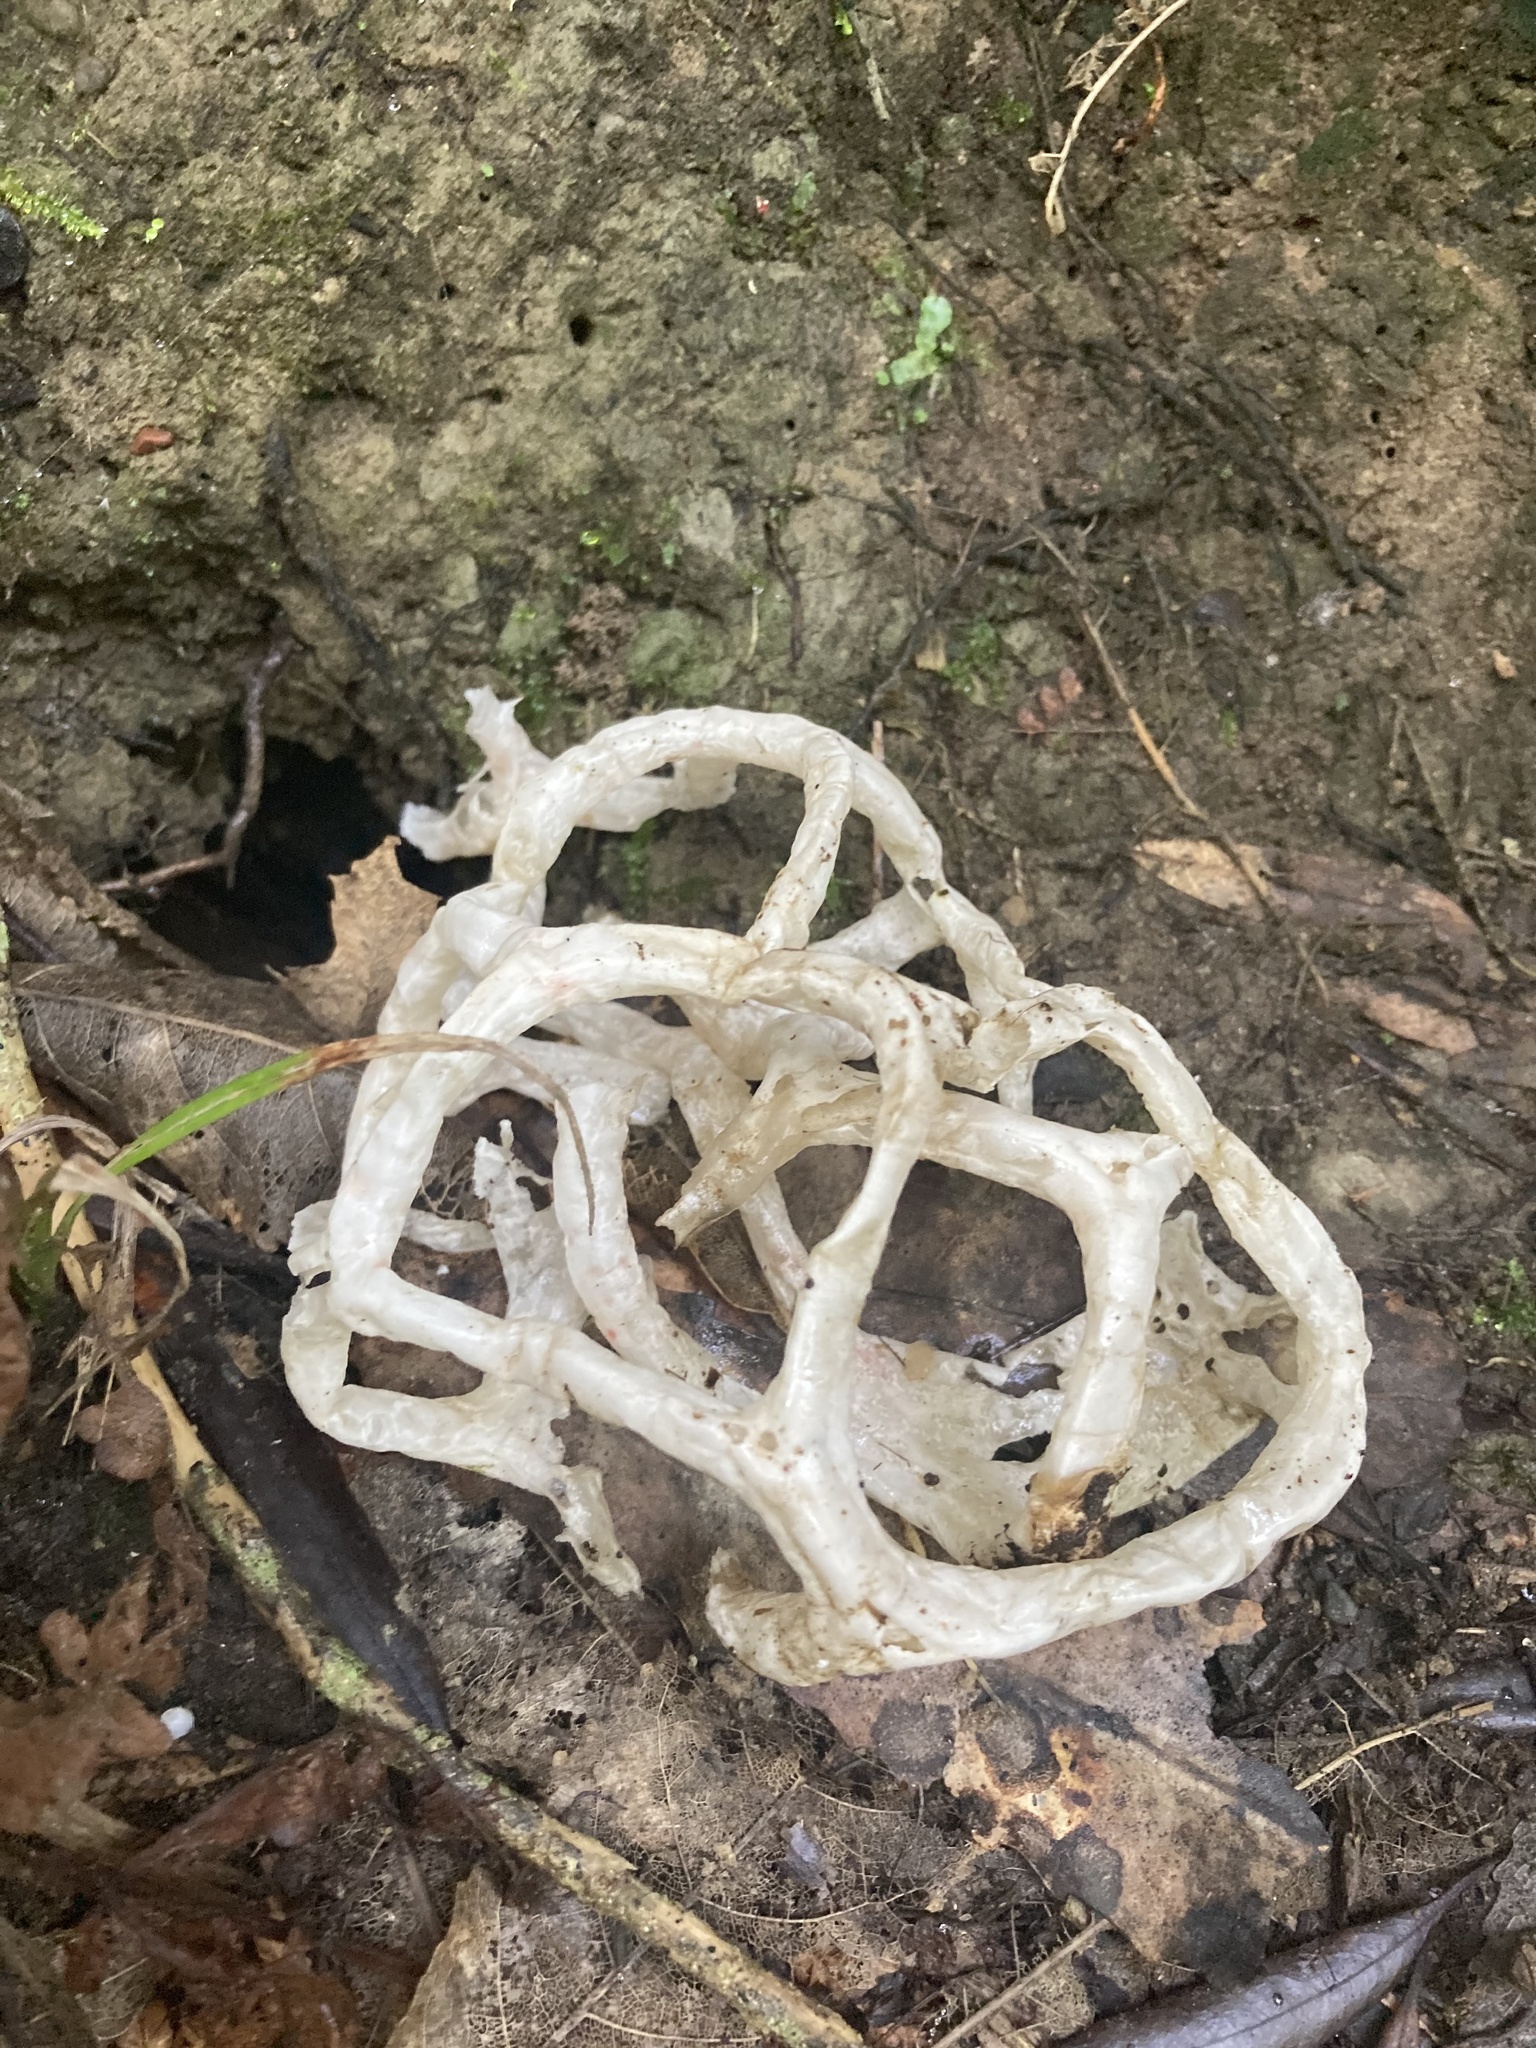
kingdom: Fungi
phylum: Basidiomycota
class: Agaricomycetes
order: Phallales
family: Phallaceae
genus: Ileodictyon
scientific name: Ileodictyon cibarium
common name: Basket fungus
